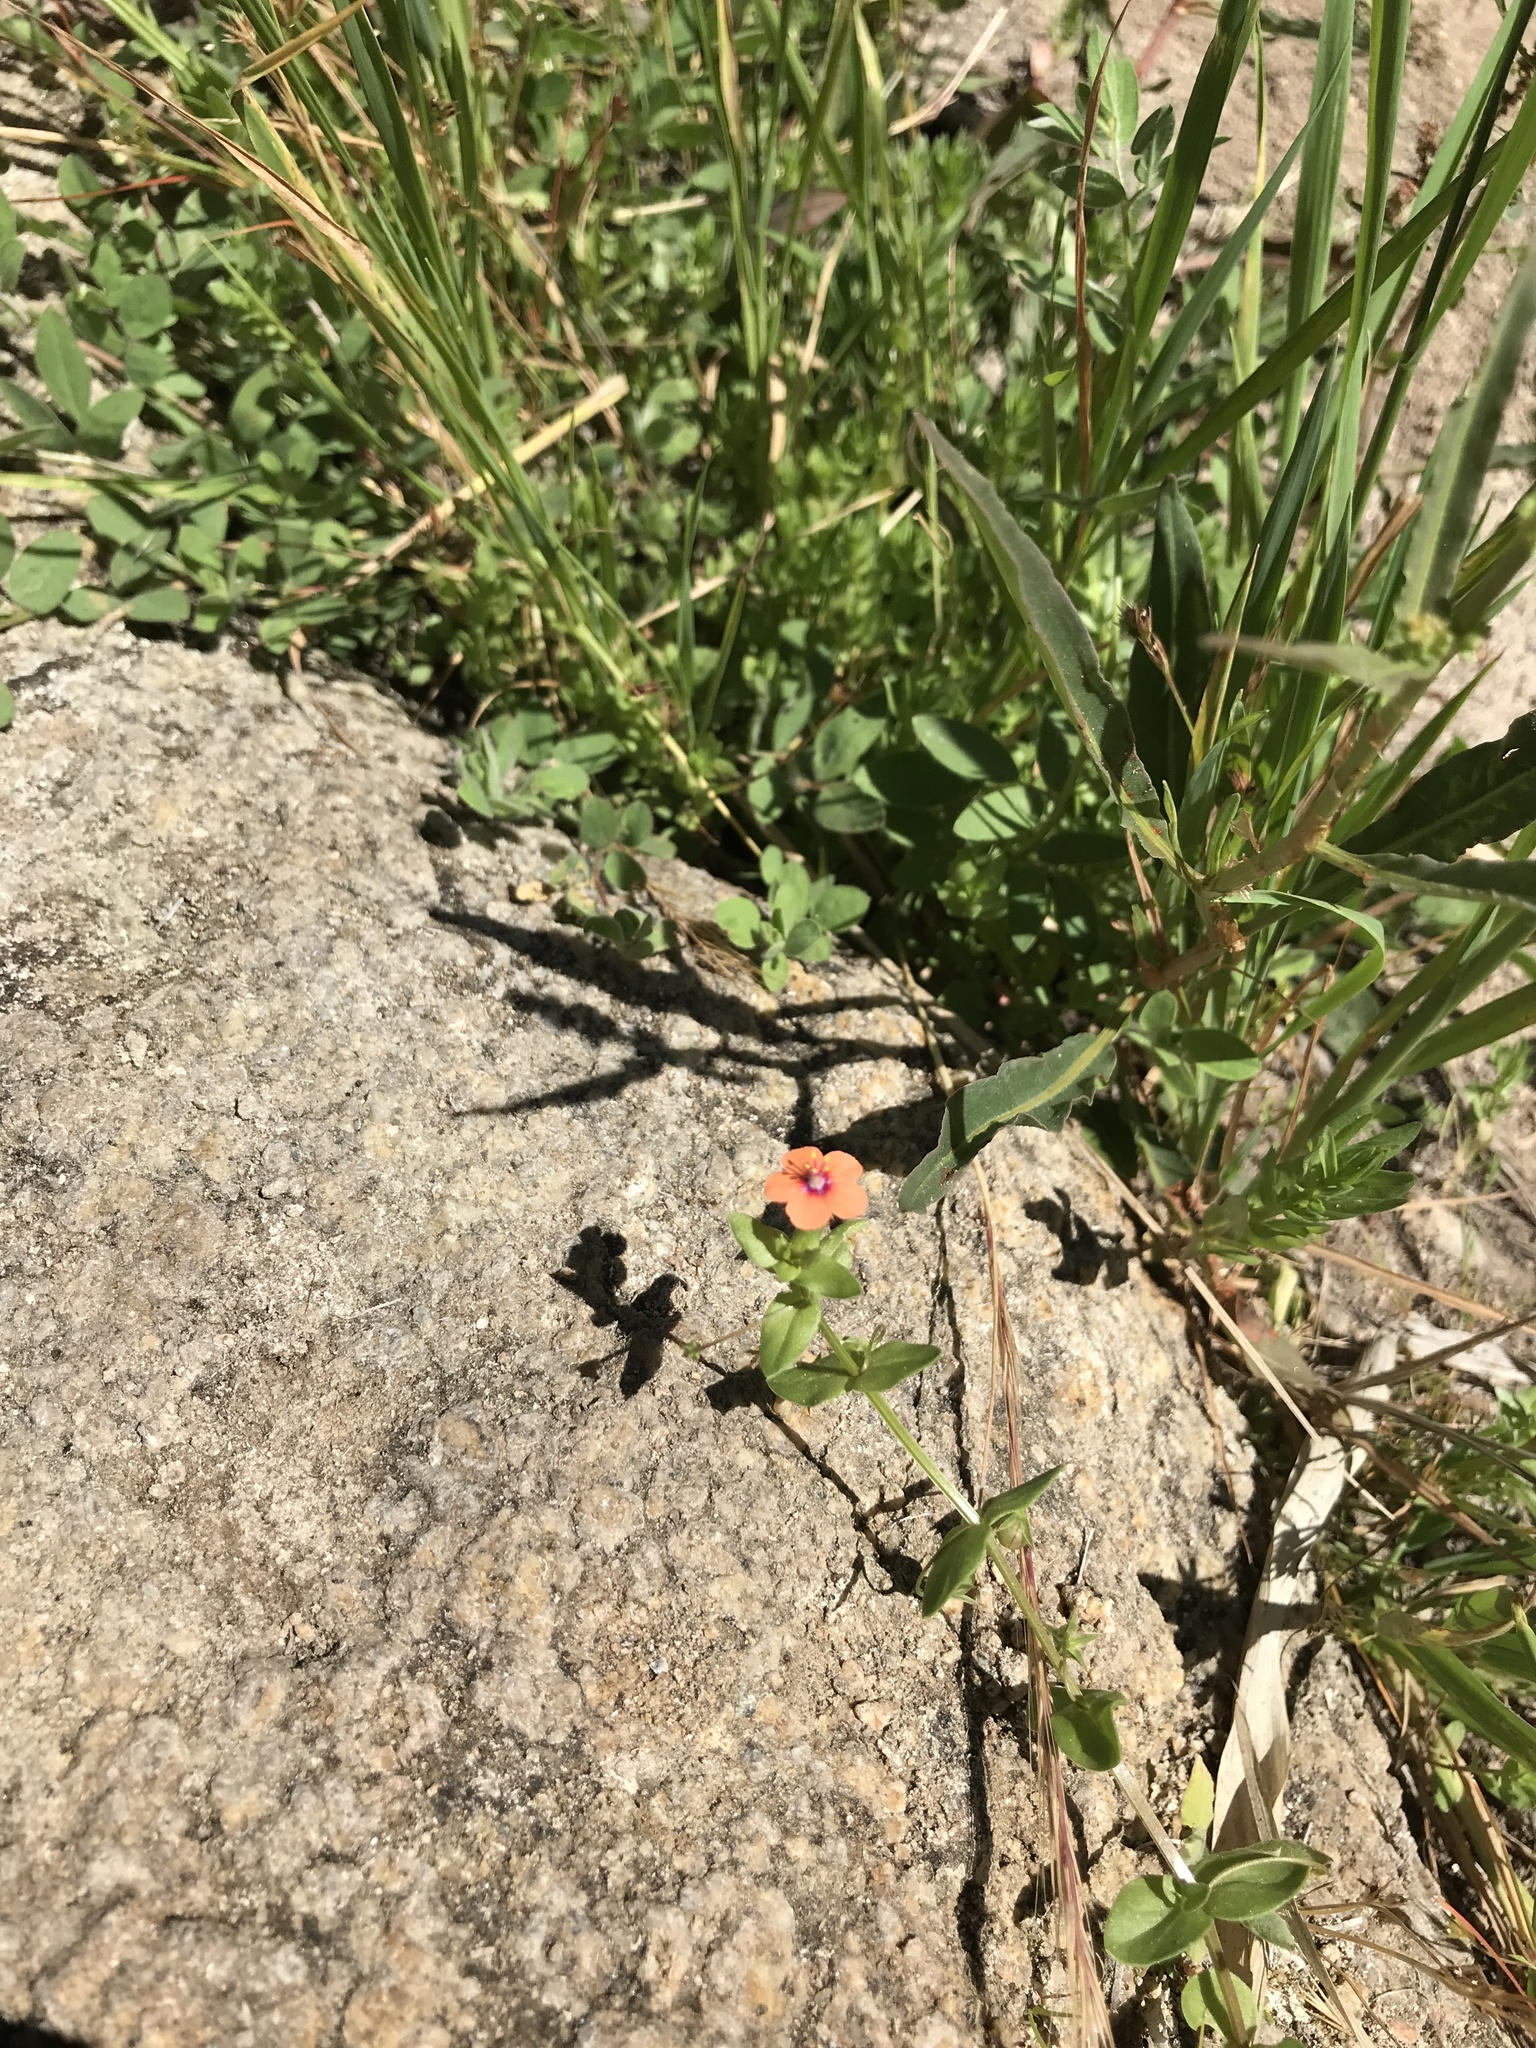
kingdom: Plantae
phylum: Tracheophyta
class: Magnoliopsida
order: Ericales
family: Primulaceae
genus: Lysimachia
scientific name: Lysimachia arvensis
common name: Scarlet pimpernel
